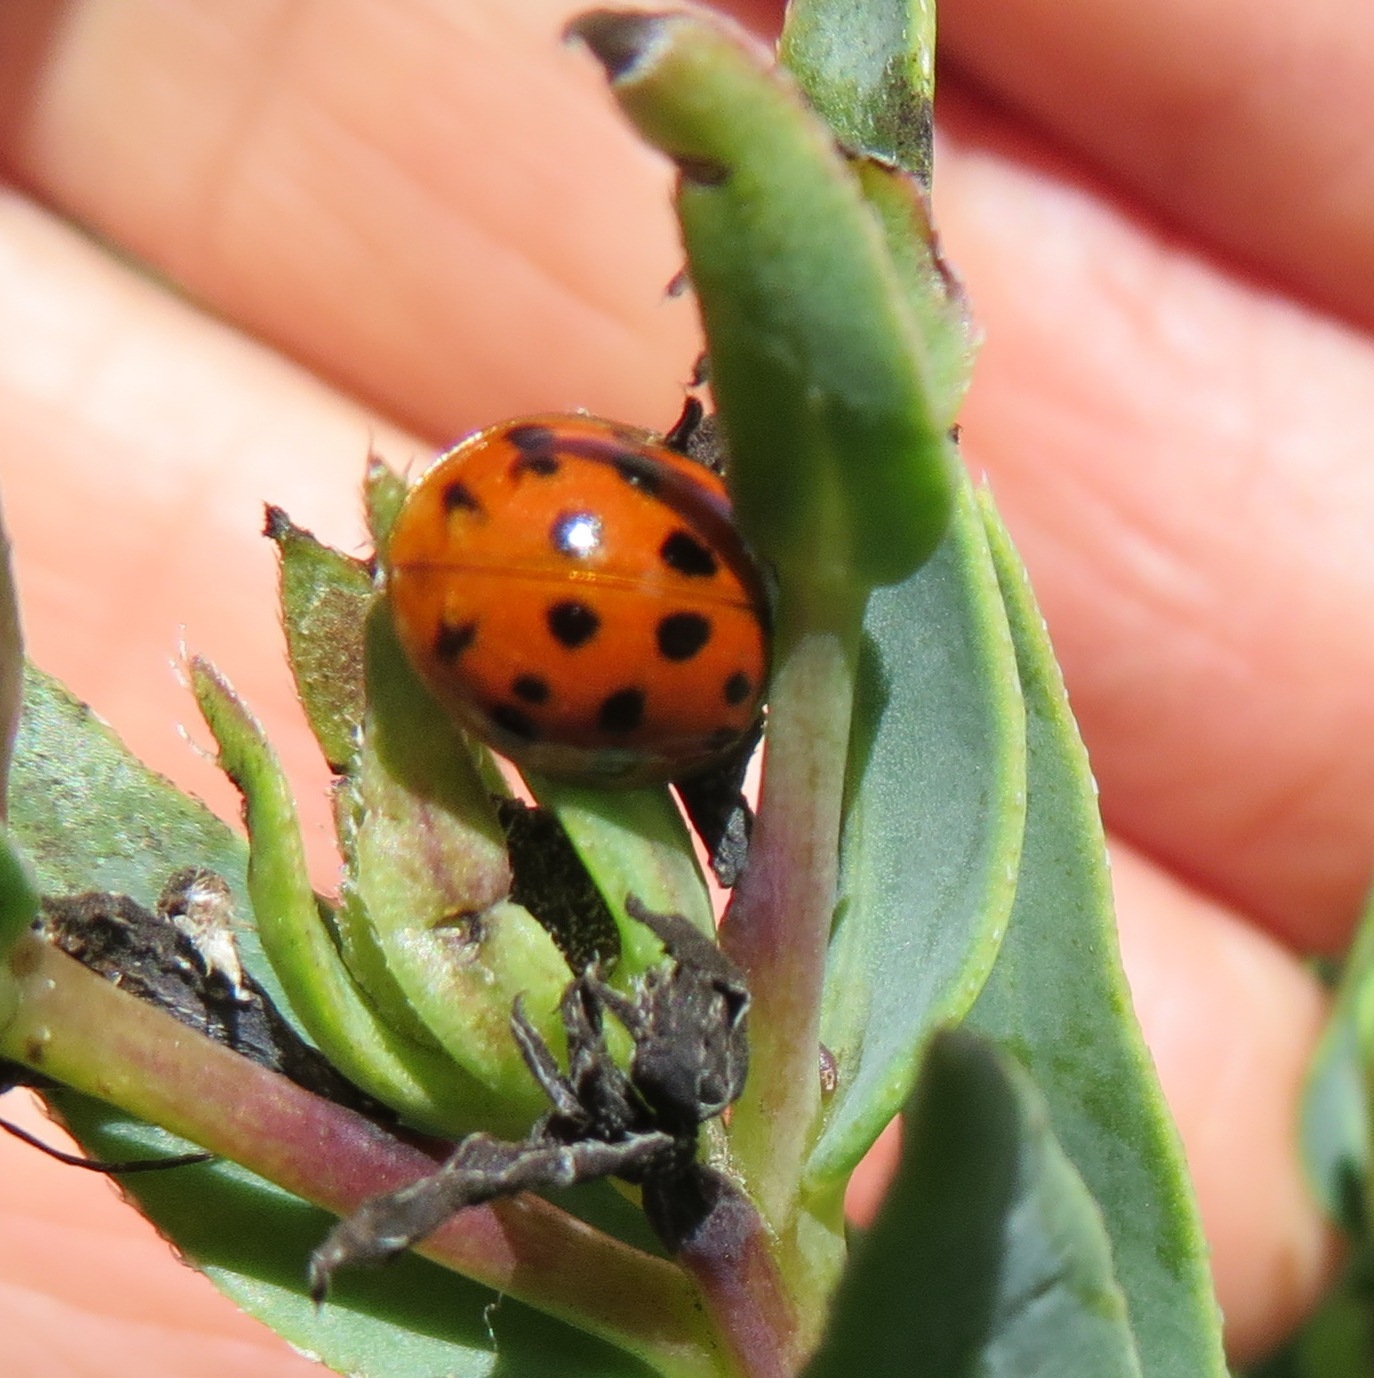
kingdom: Animalia
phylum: Arthropoda
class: Insecta
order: Coleoptera
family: Coccinellidae
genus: Harmonia
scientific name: Harmonia axyridis
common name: Harlequin ladybird
